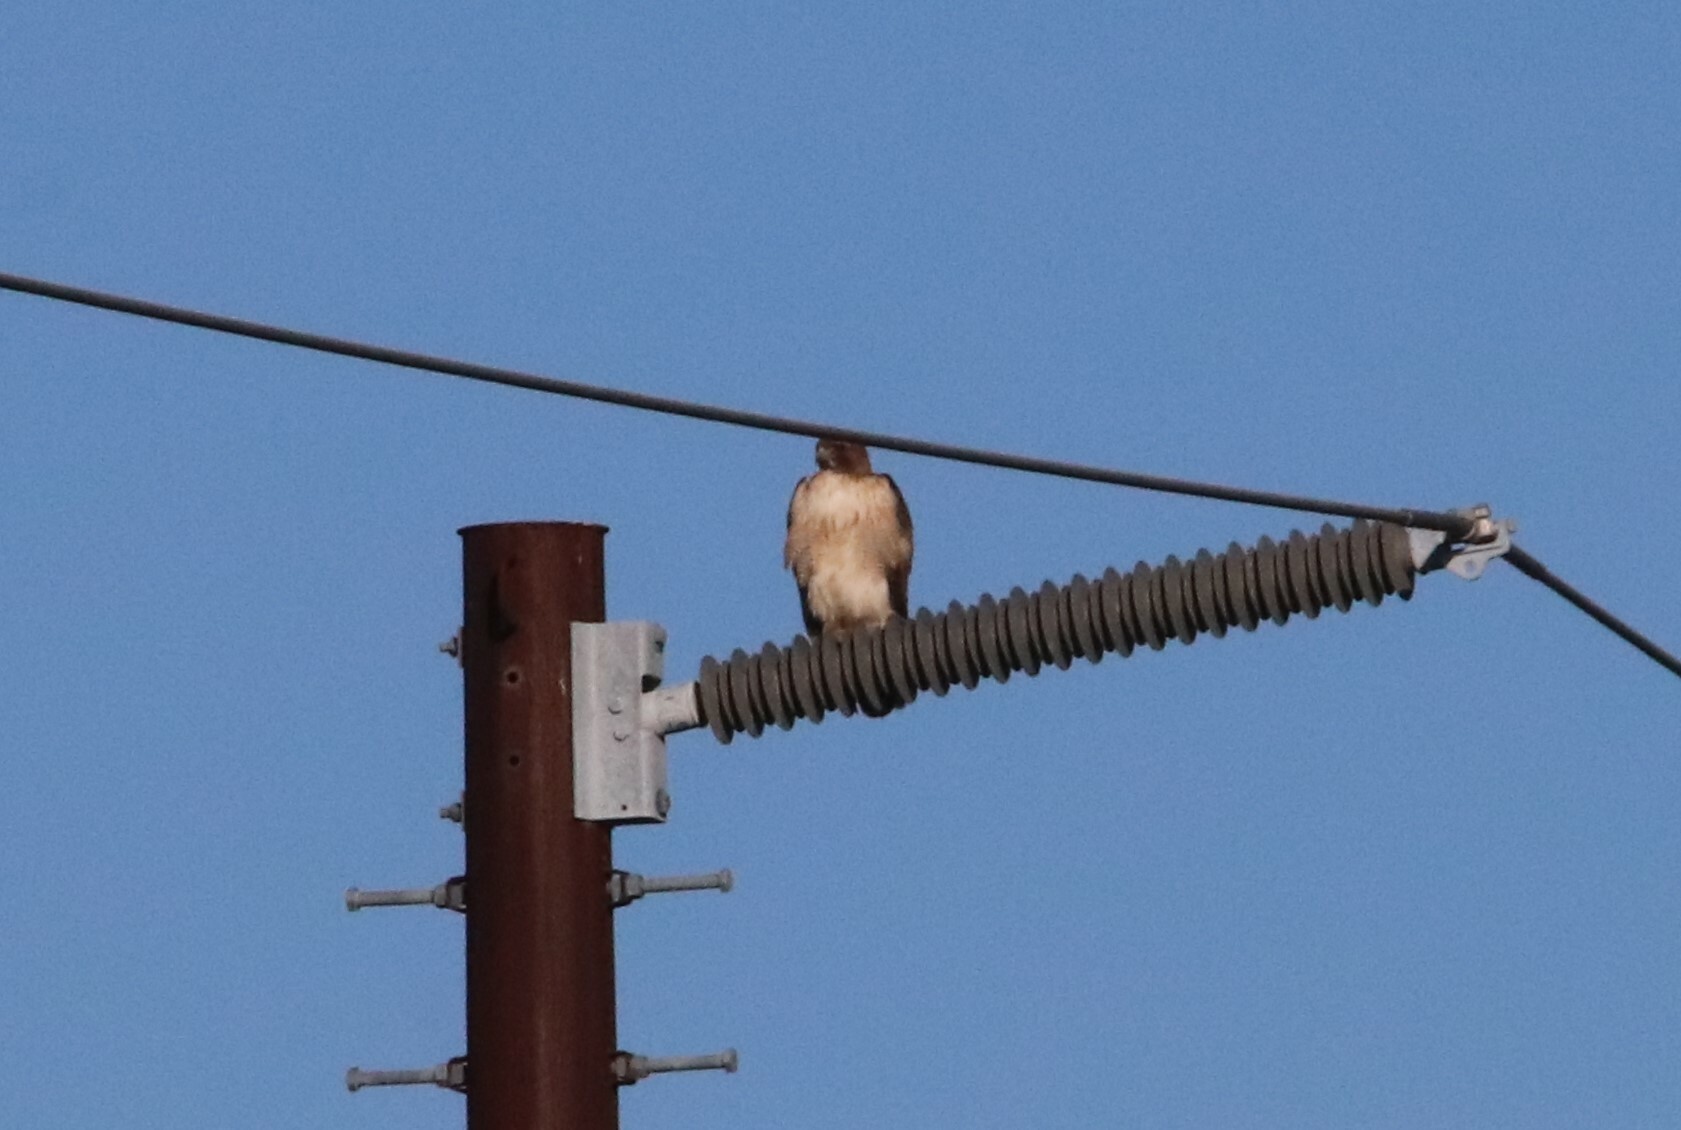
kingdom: Animalia
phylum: Chordata
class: Aves
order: Accipitriformes
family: Accipitridae
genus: Buteo
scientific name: Buteo jamaicensis
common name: Red-tailed hawk
